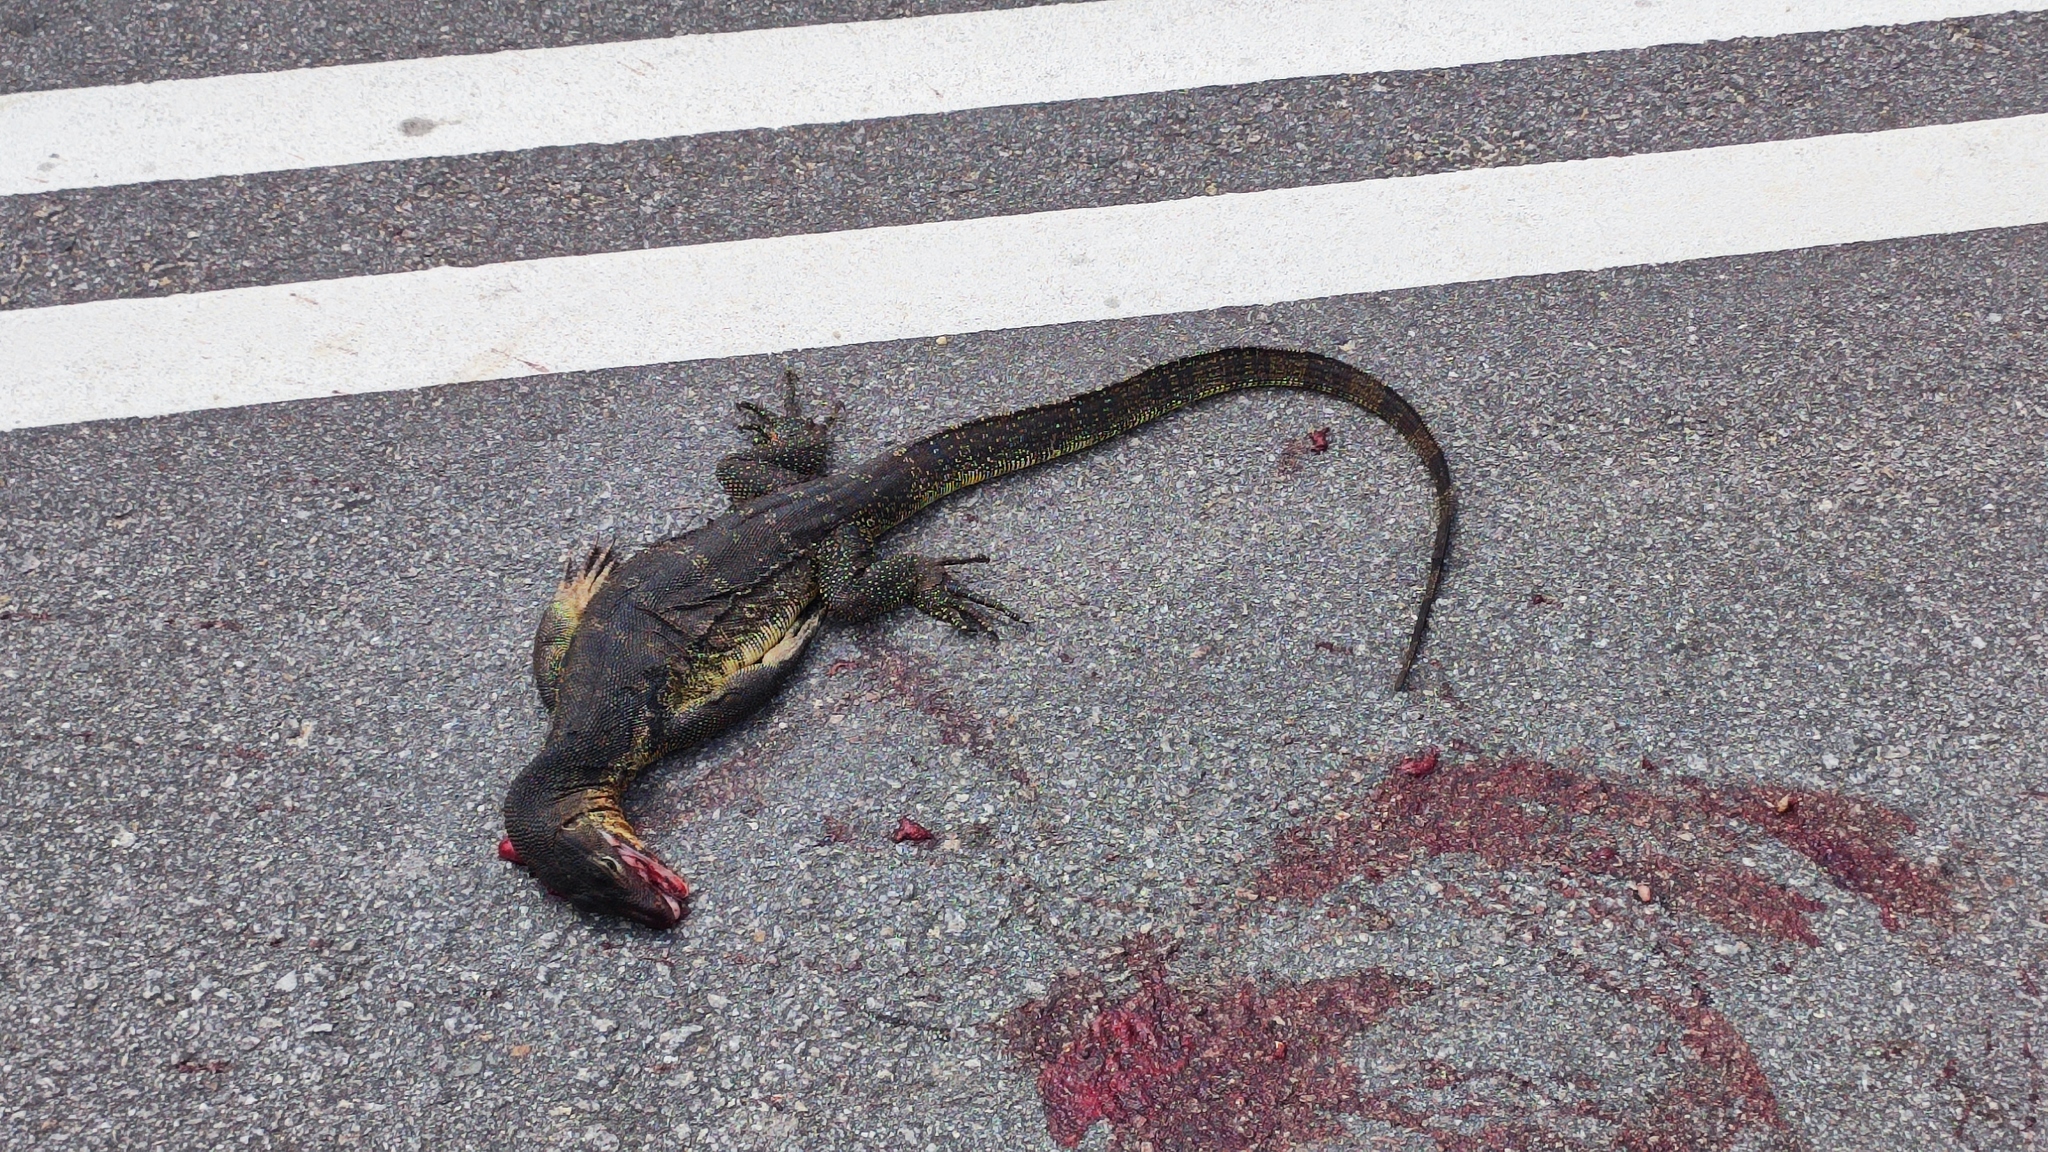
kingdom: Animalia
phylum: Chordata
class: Squamata
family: Varanidae
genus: Varanus
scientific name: Varanus salvator
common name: Common water monitor
